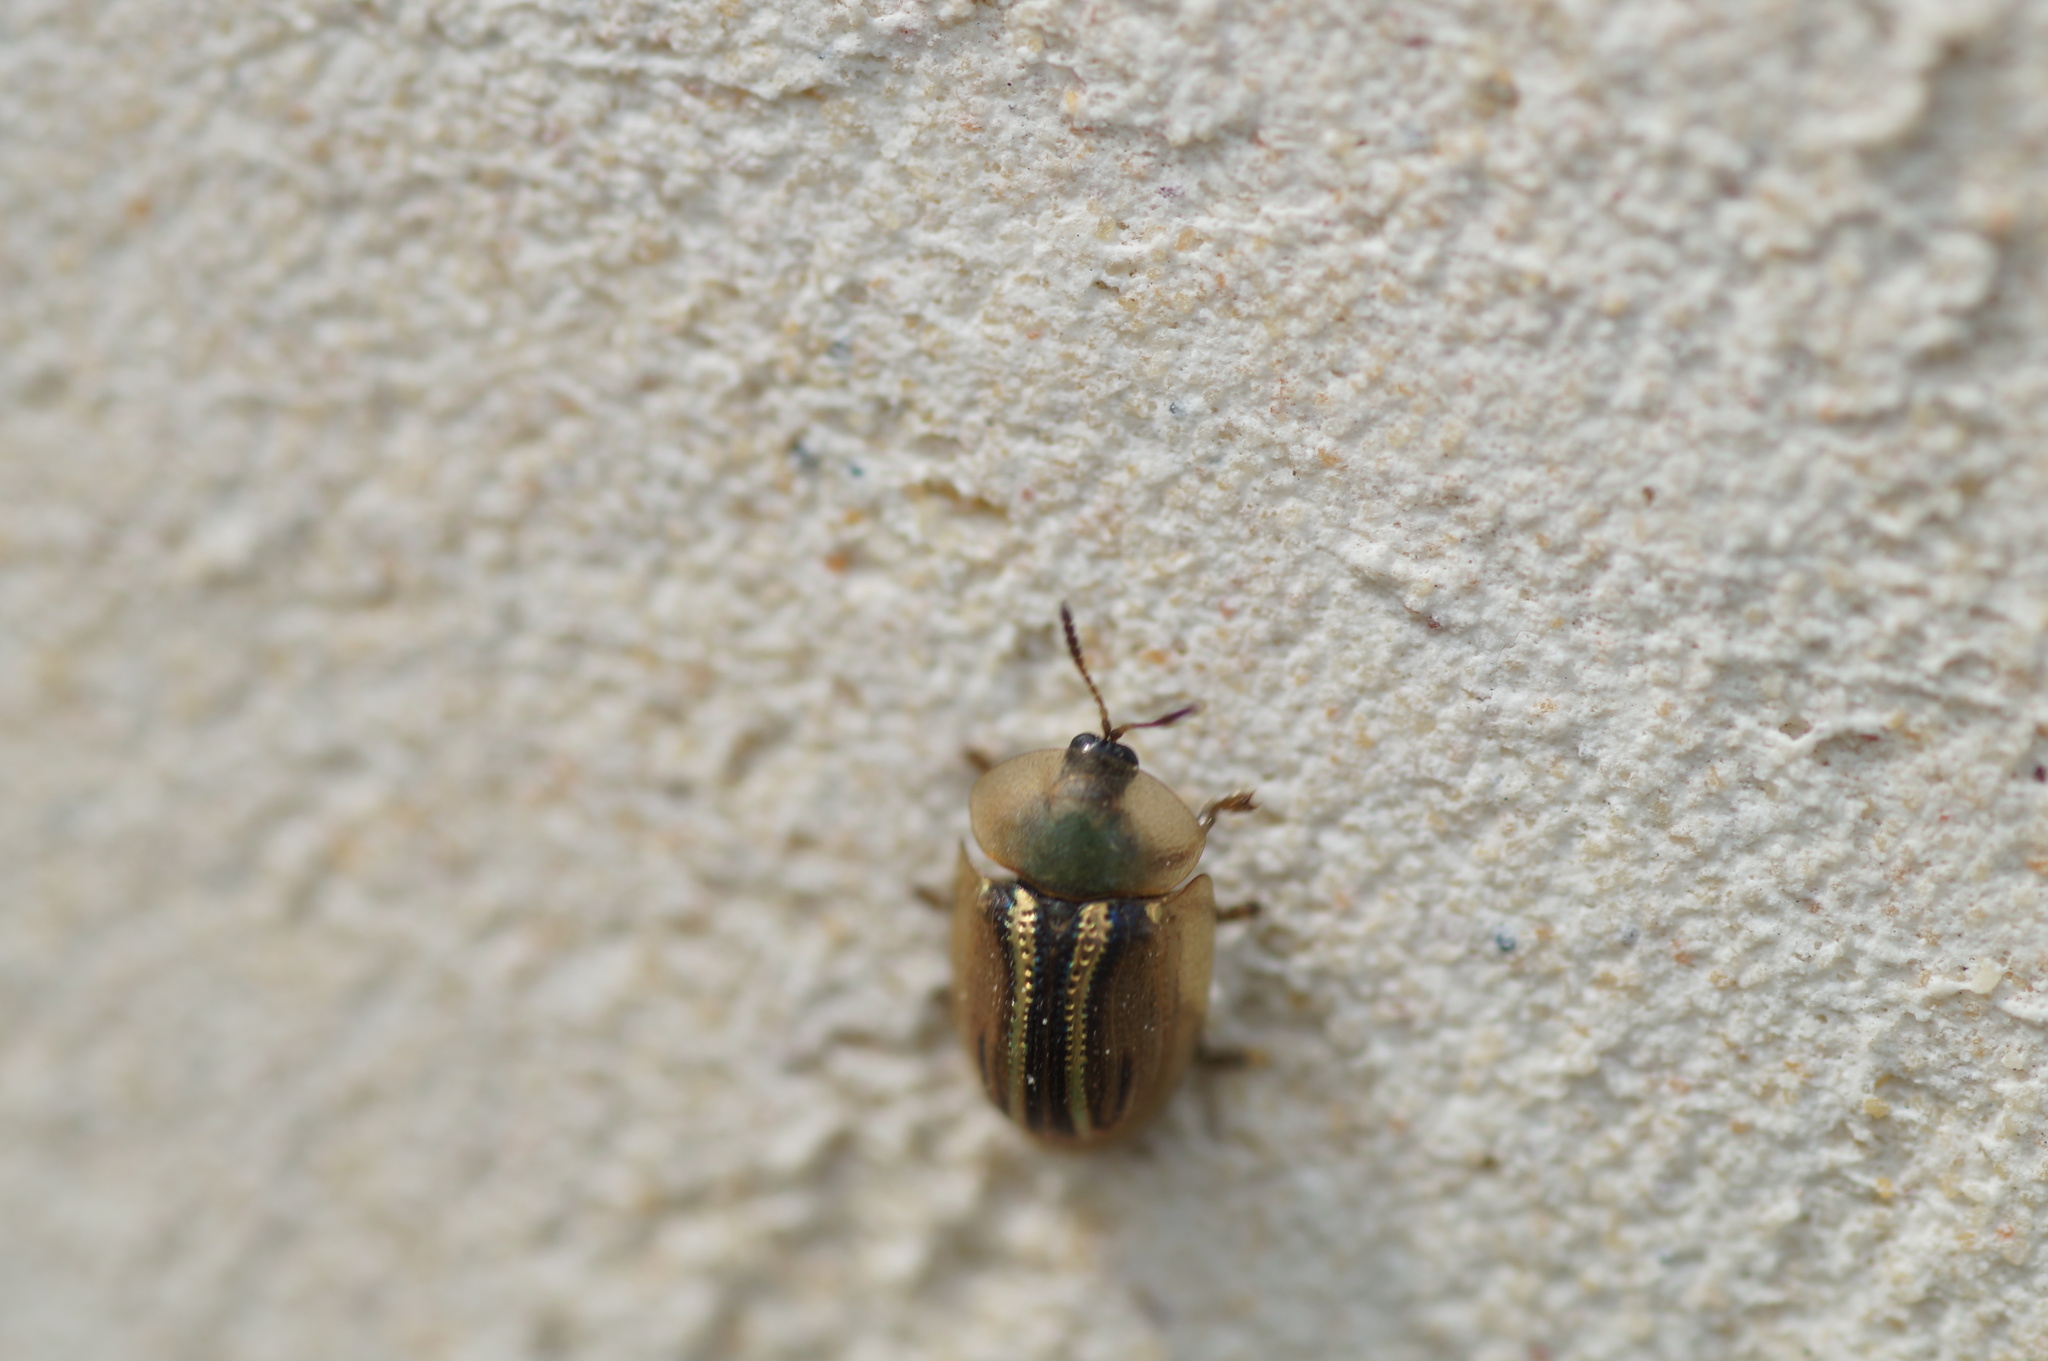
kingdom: Animalia
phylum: Arthropoda
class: Insecta
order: Coleoptera
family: Chrysomelidae
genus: Cassida
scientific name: Cassida nobilis
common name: Leaf beetle
